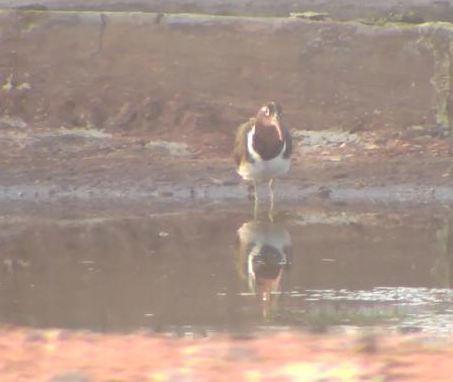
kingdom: Animalia
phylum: Chordata
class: Aves
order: Charadriiformes
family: Rostratulidae
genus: Rostratula
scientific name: Rostratula benghalensis
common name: Greater painted-snipe
